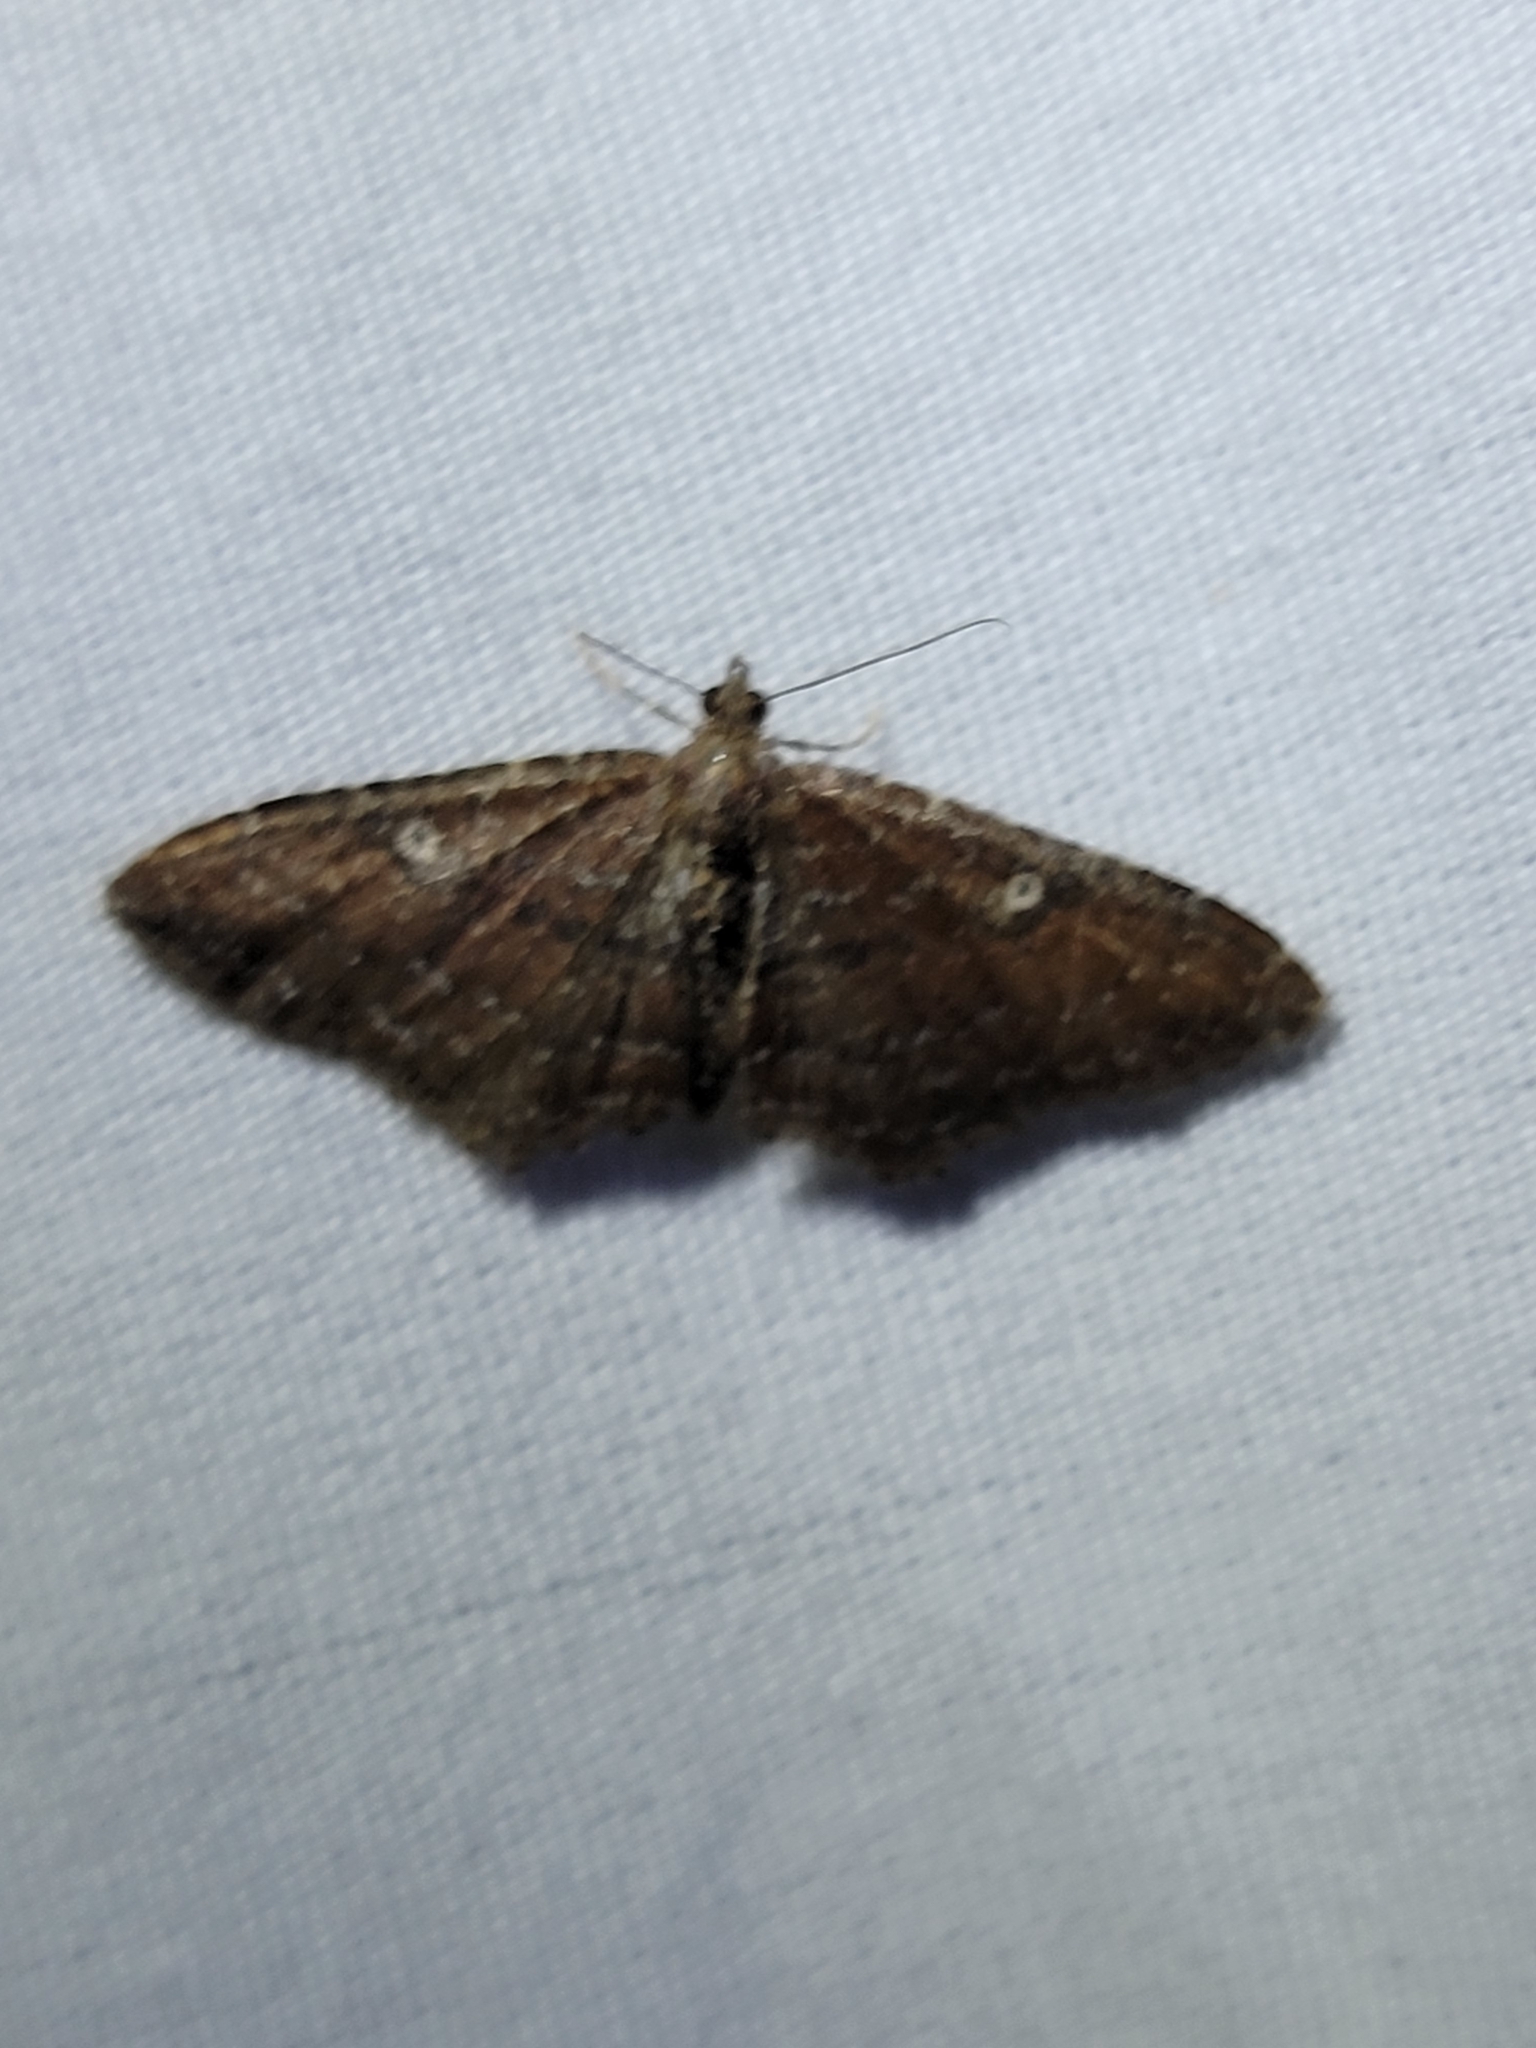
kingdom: Animalia
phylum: Arthropoda
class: Insecta
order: Lepidoptera
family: Geometridae
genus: Orthonama
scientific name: Orthonama obstipata
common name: The gem
